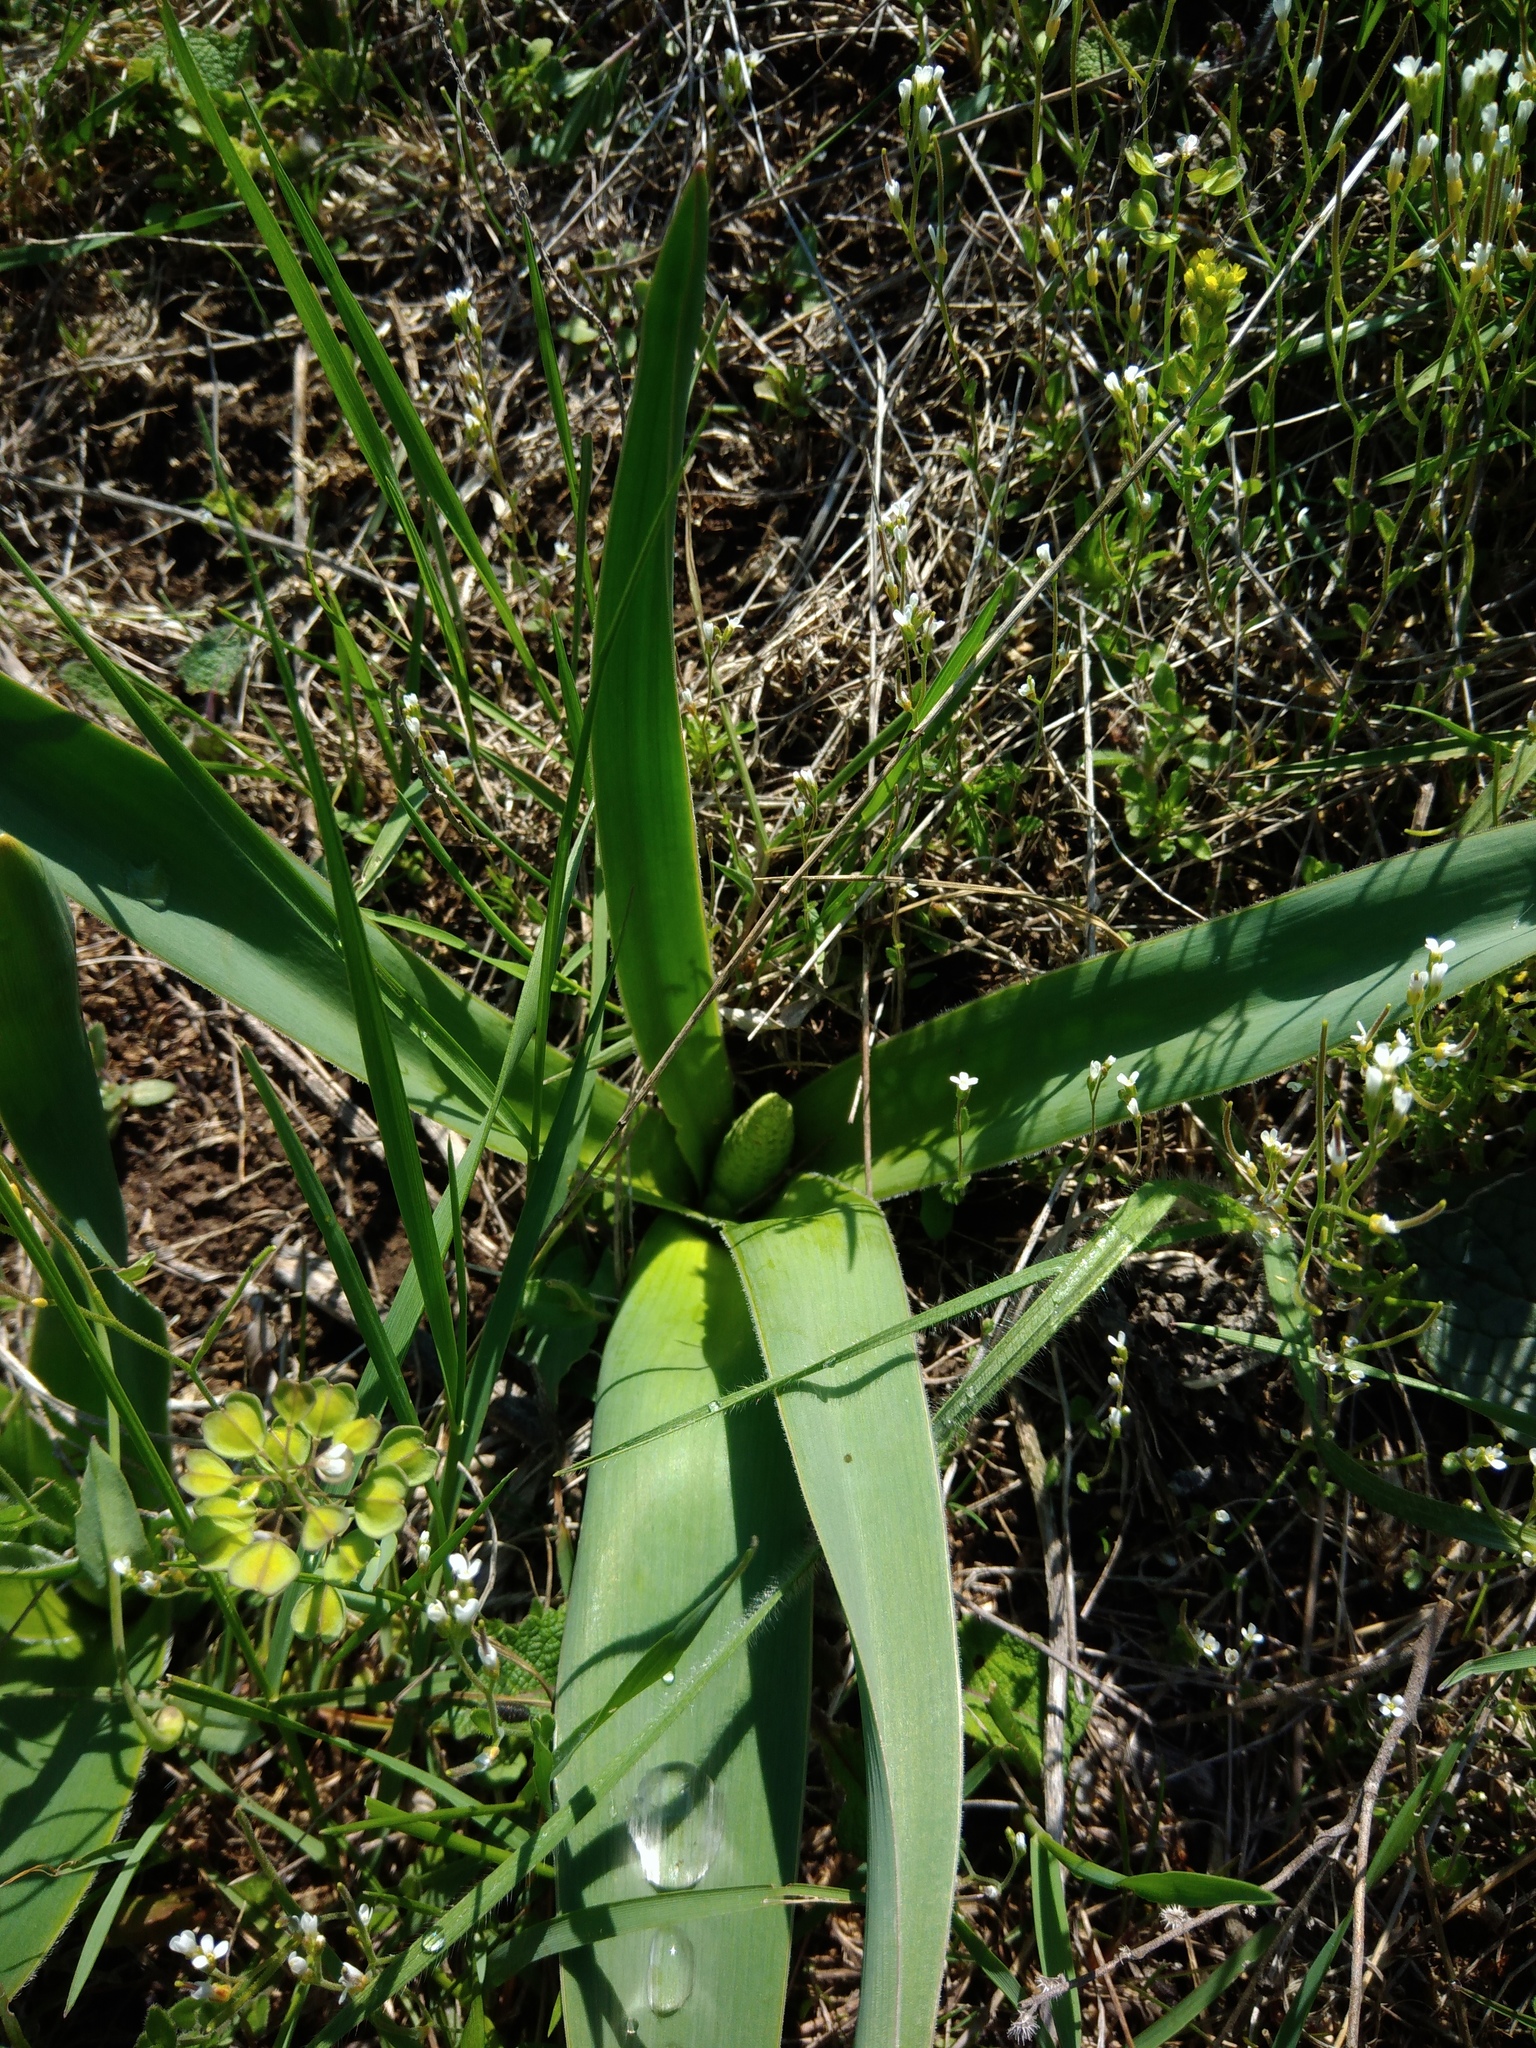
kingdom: Plantae
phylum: Tracheophyta
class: Liliopsida
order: Asparagales
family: Asparagaceae
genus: Bellevalia
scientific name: Bellevalia speciosa
